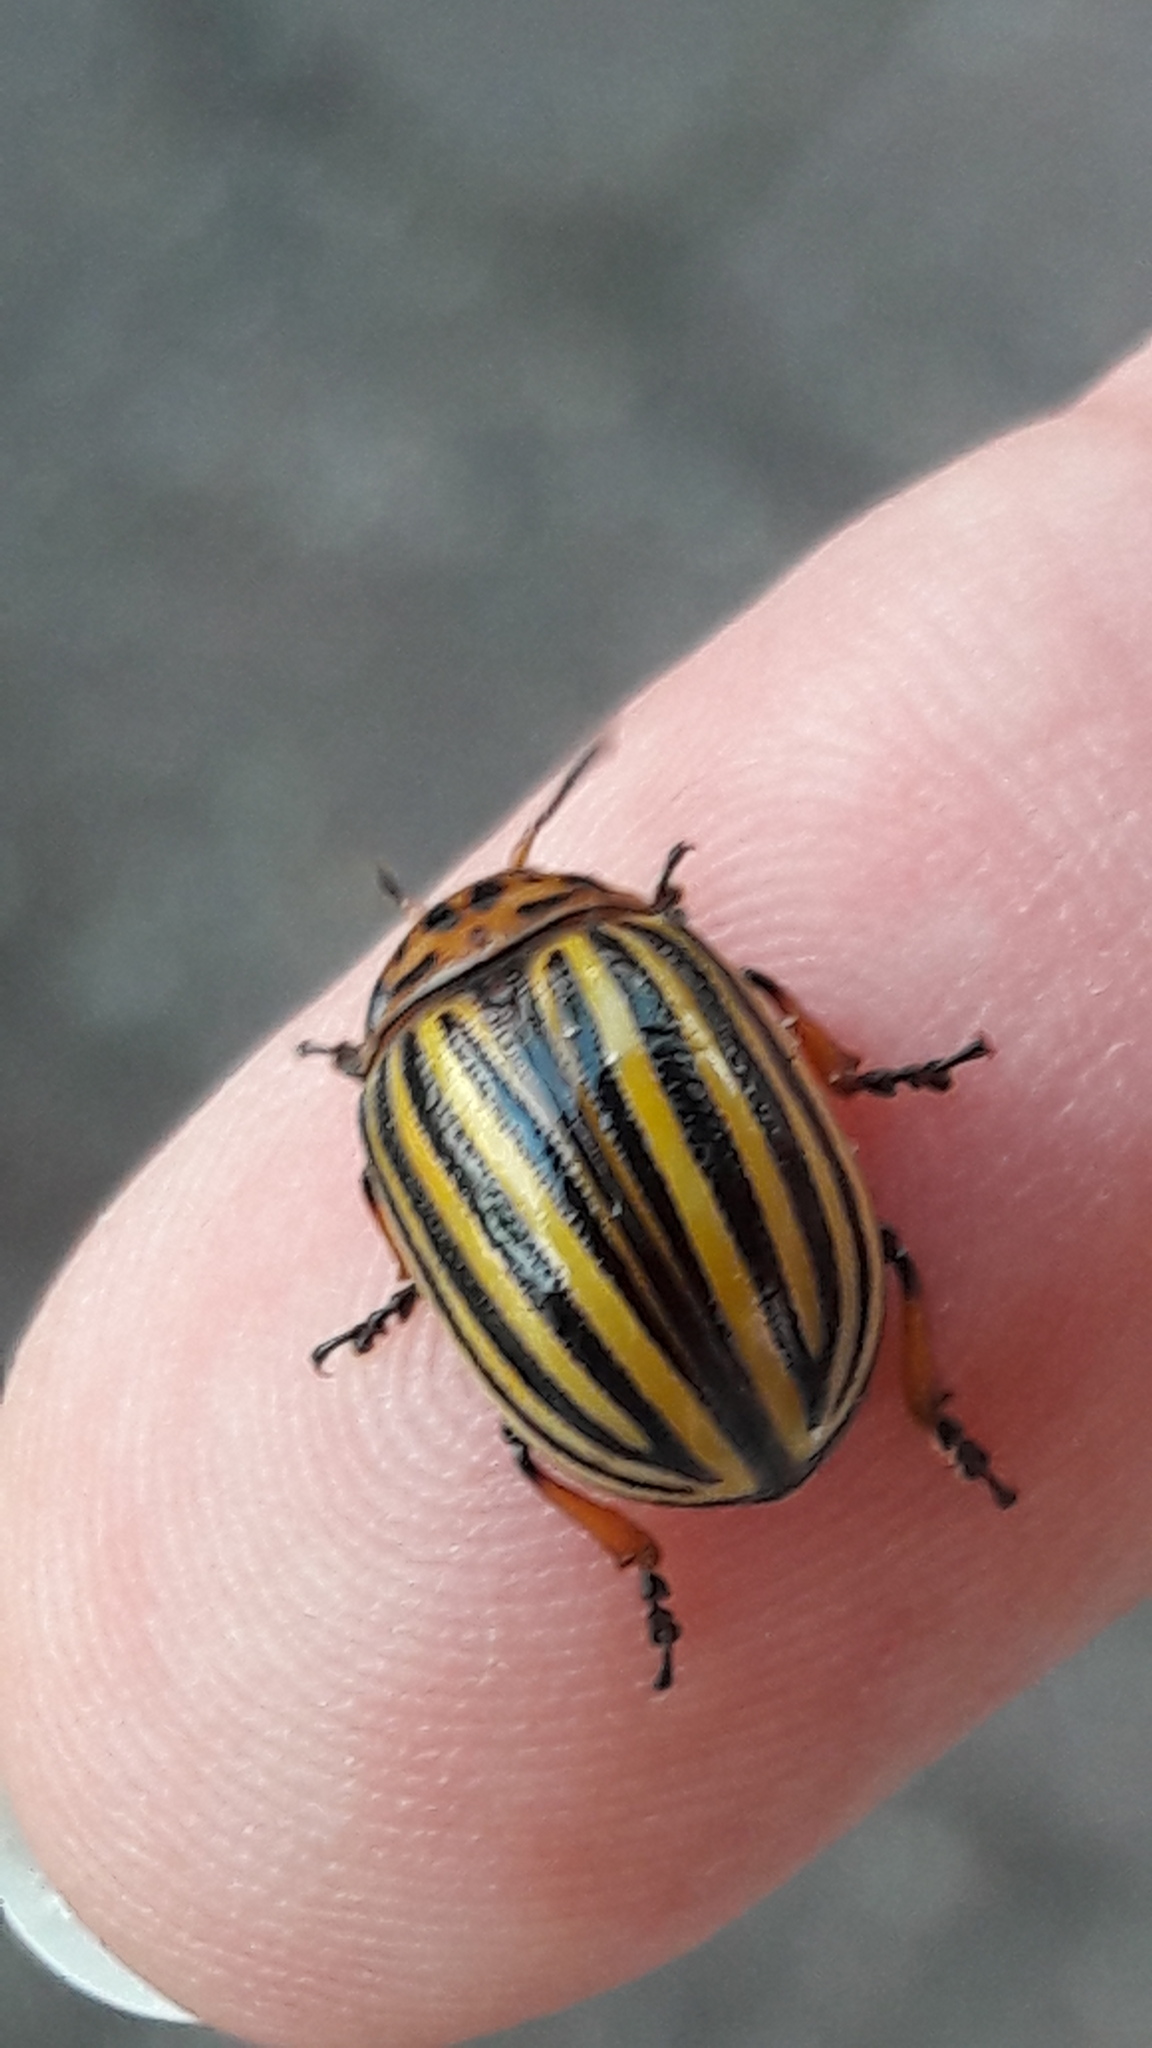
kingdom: Animalia
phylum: Arthropoda
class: Insecta
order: Coleoptera
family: Chrysomelidae
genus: Leptinotarsa
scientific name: Leptinotarsa decemlineata
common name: Colorado potato beetle
